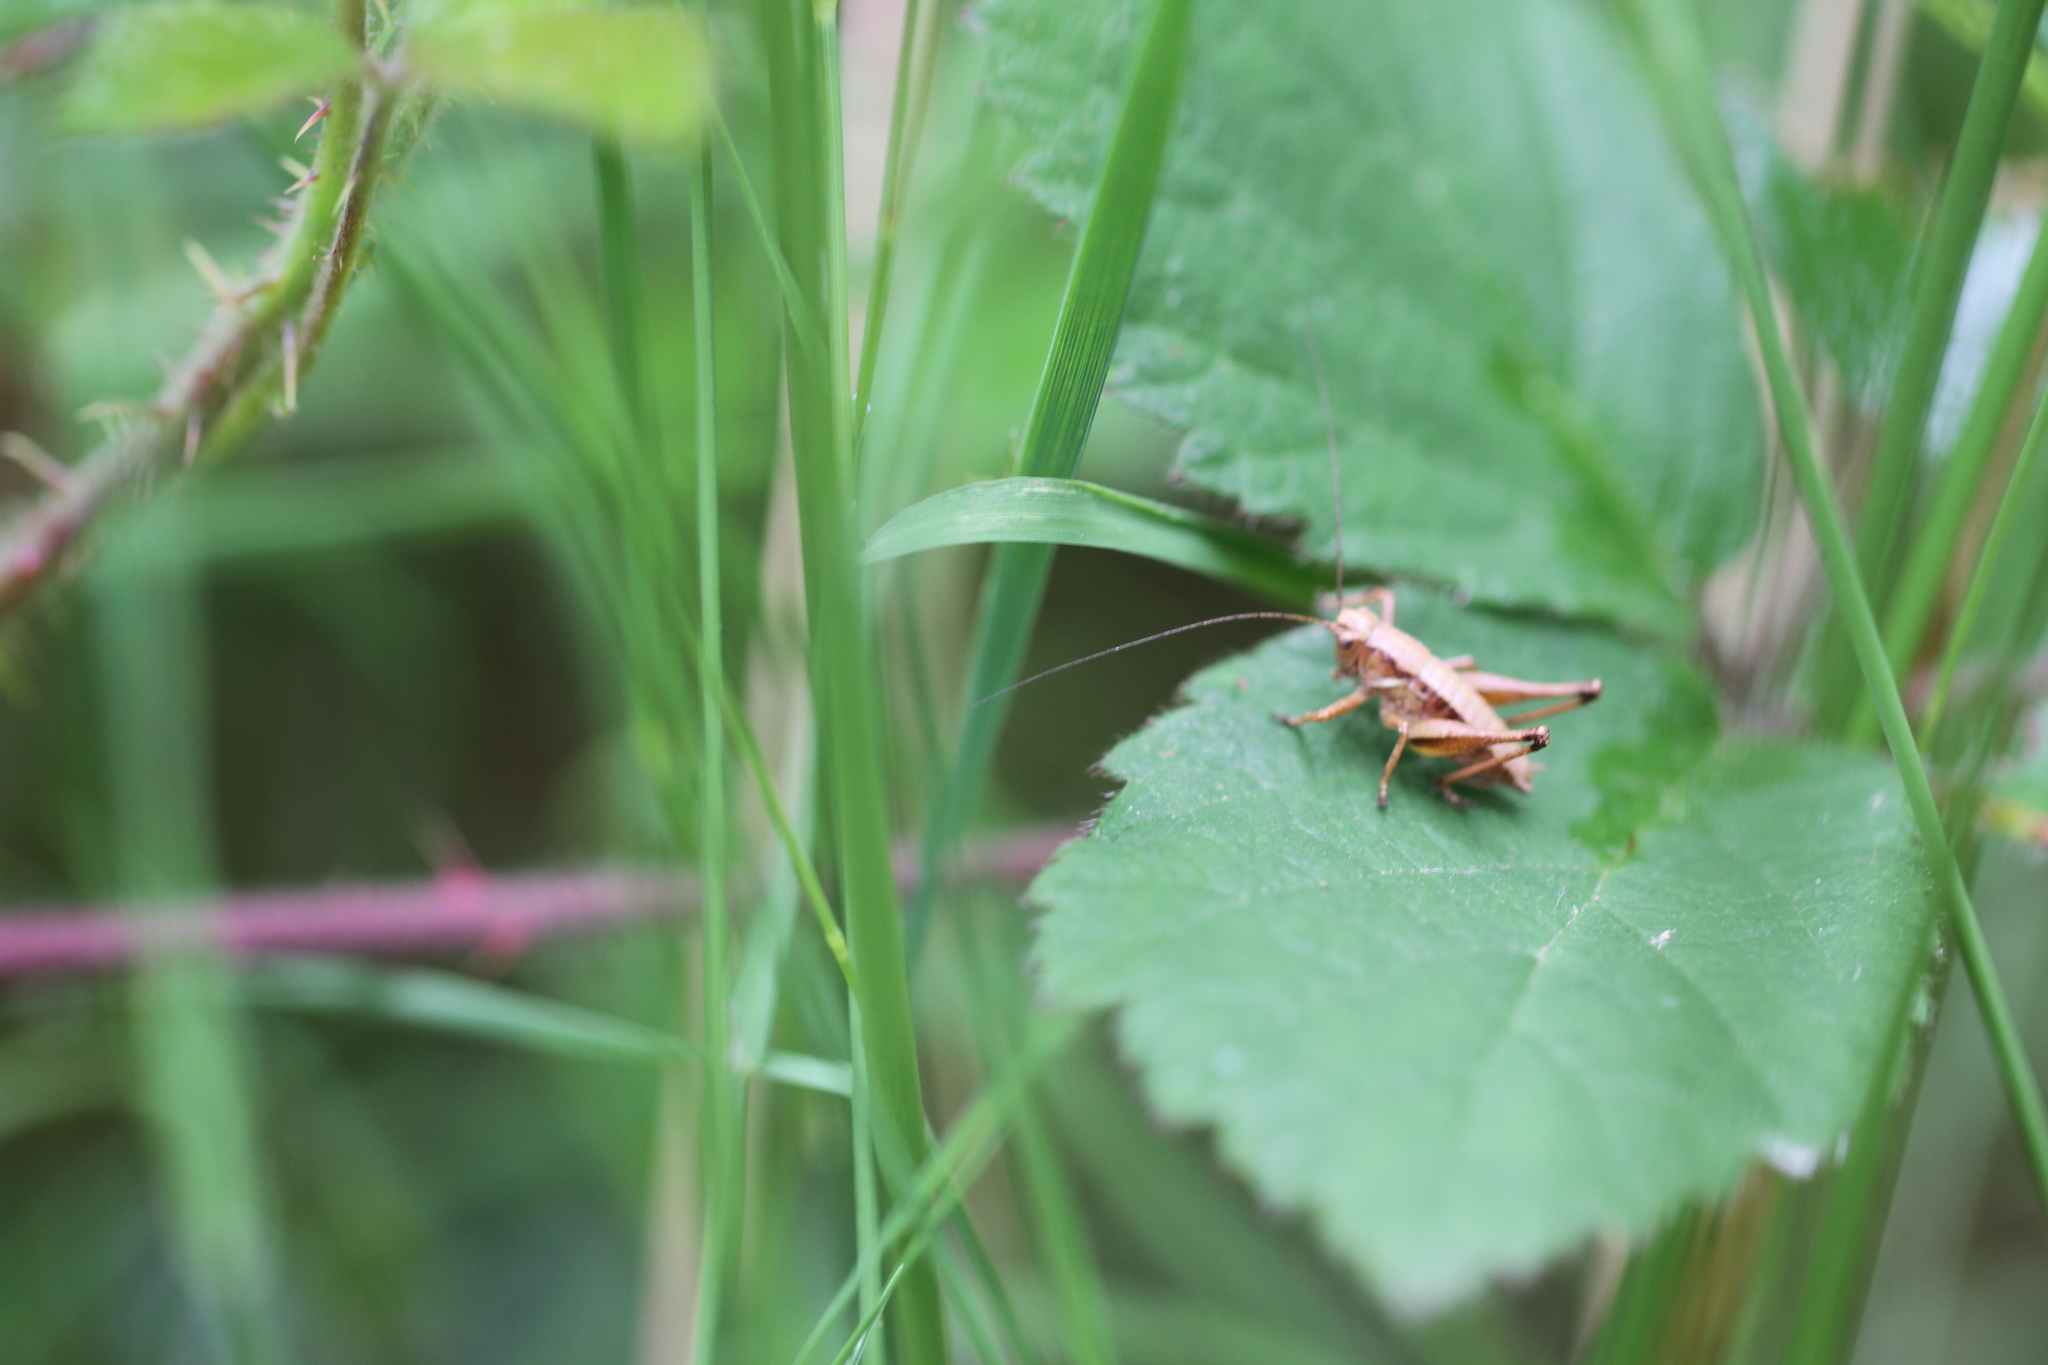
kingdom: Animalia
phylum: Arthropoda
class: Insecta
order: Orthoptera
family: Tettigoniidae
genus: Pholidoptera
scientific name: Pholidoptera griseoaptera
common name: Dark bush-cricket
